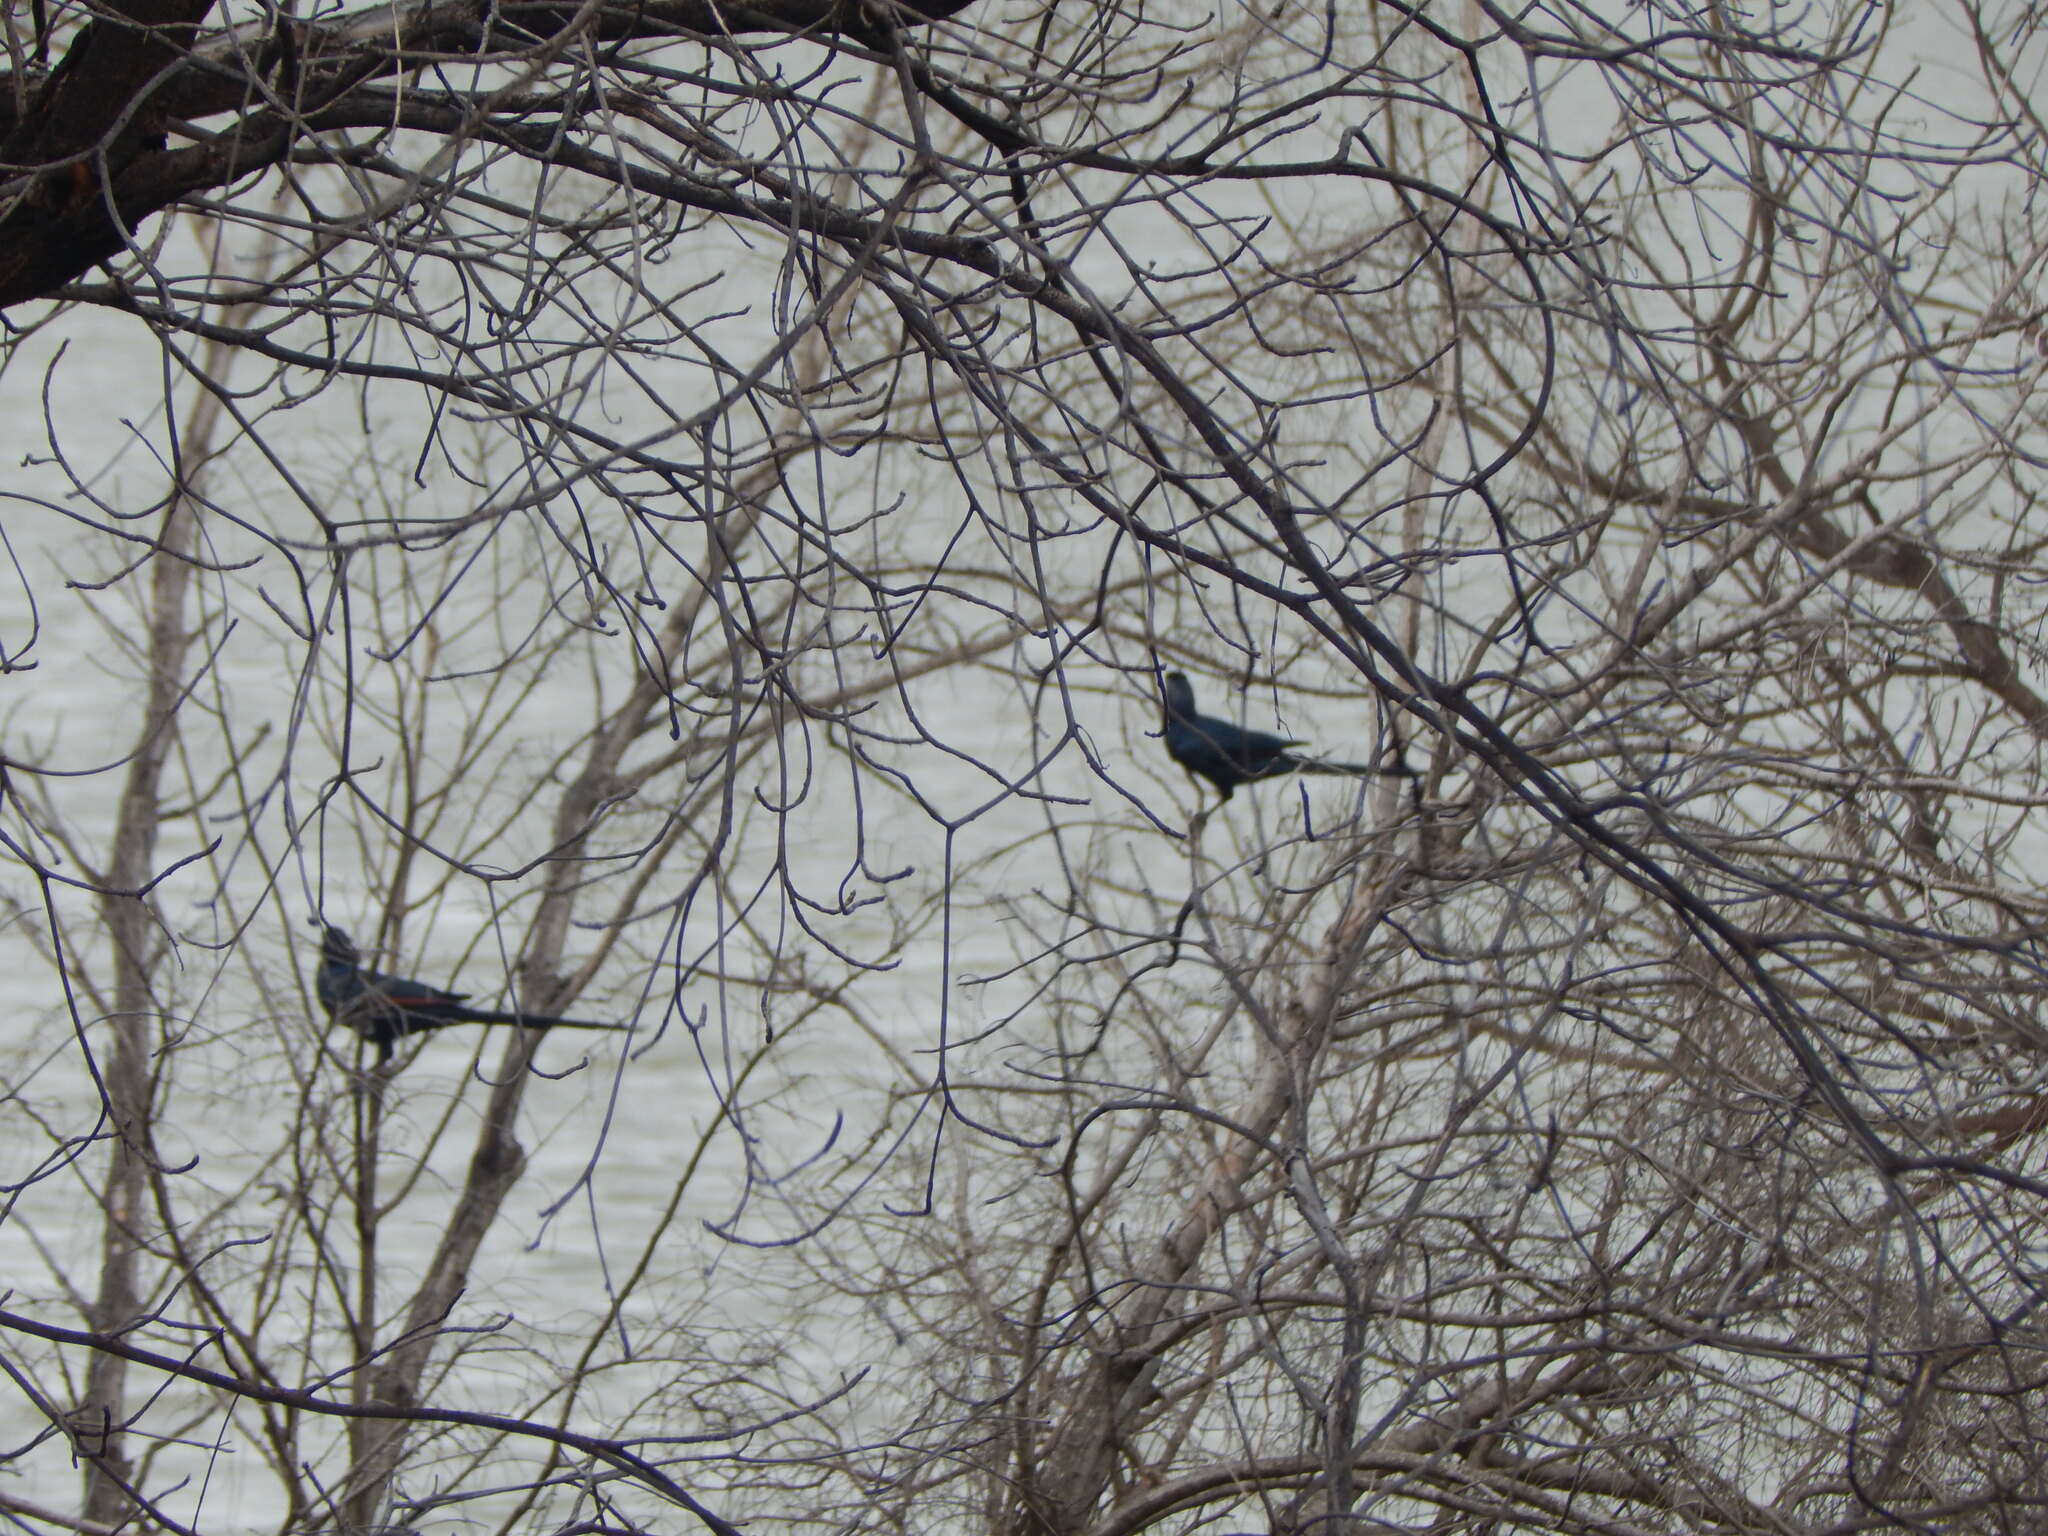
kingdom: Animalia
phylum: Chordata
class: Aves
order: Passeriformes
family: Sturnidae
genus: Onychognathus
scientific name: Onychognathus salvadorii
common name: Bristle-crowned starling
